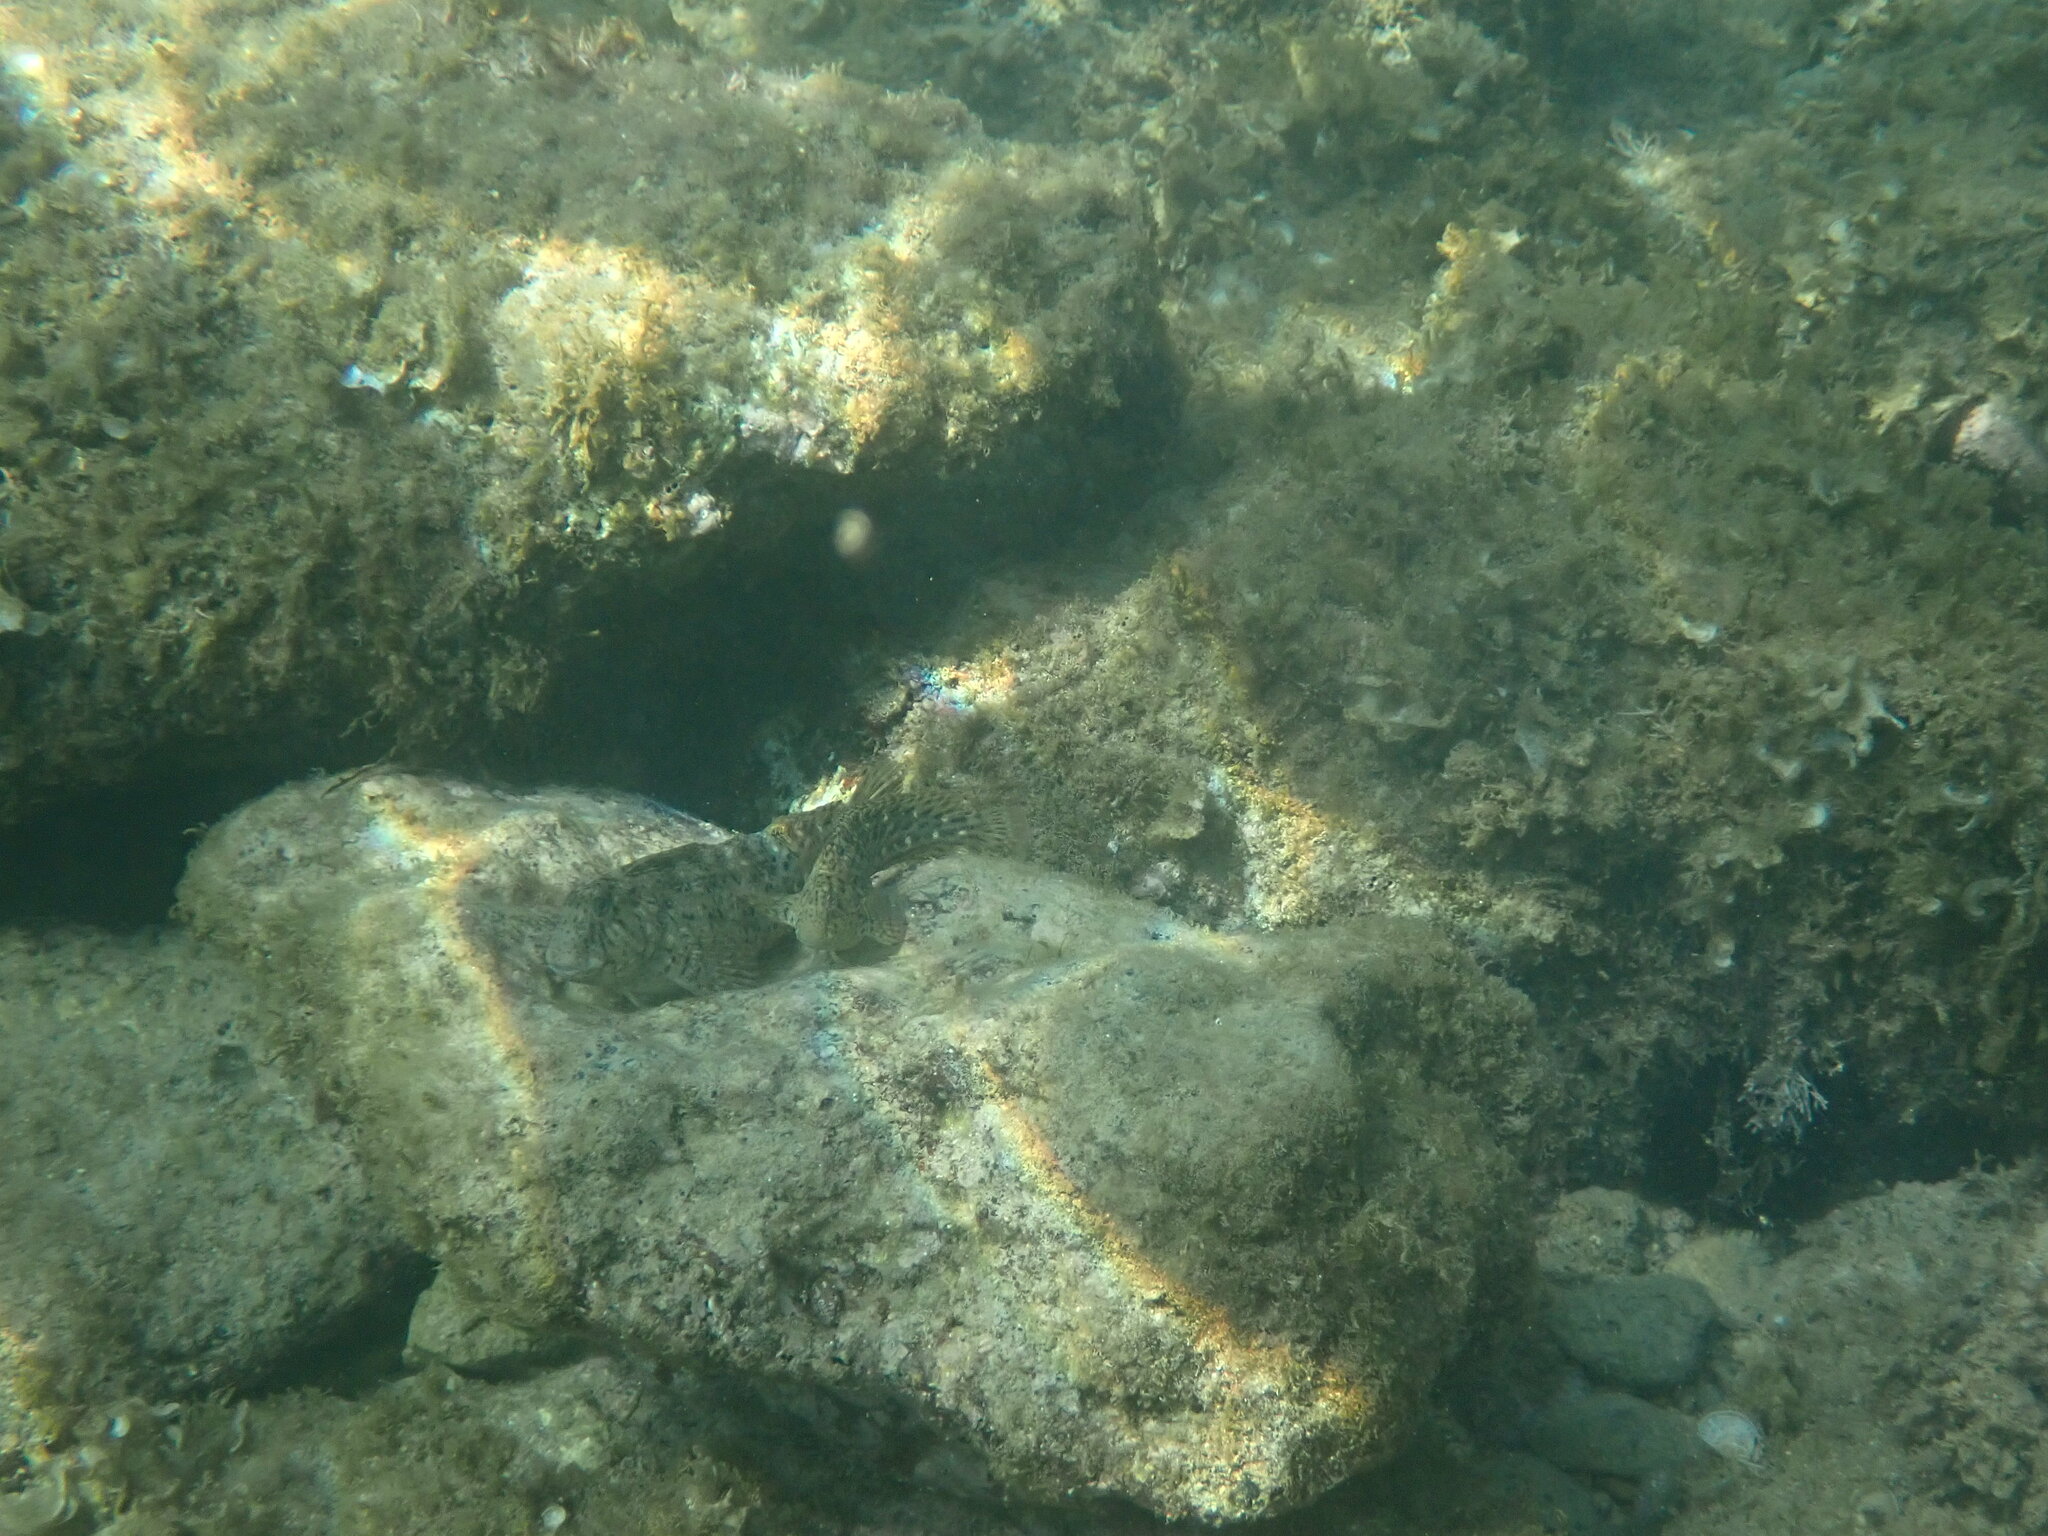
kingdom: Animalia
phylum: Chordata
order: Perciformes
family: Blenniidae
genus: Parablennius
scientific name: Parablennius sanguinolentus
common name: Black sea blenny
